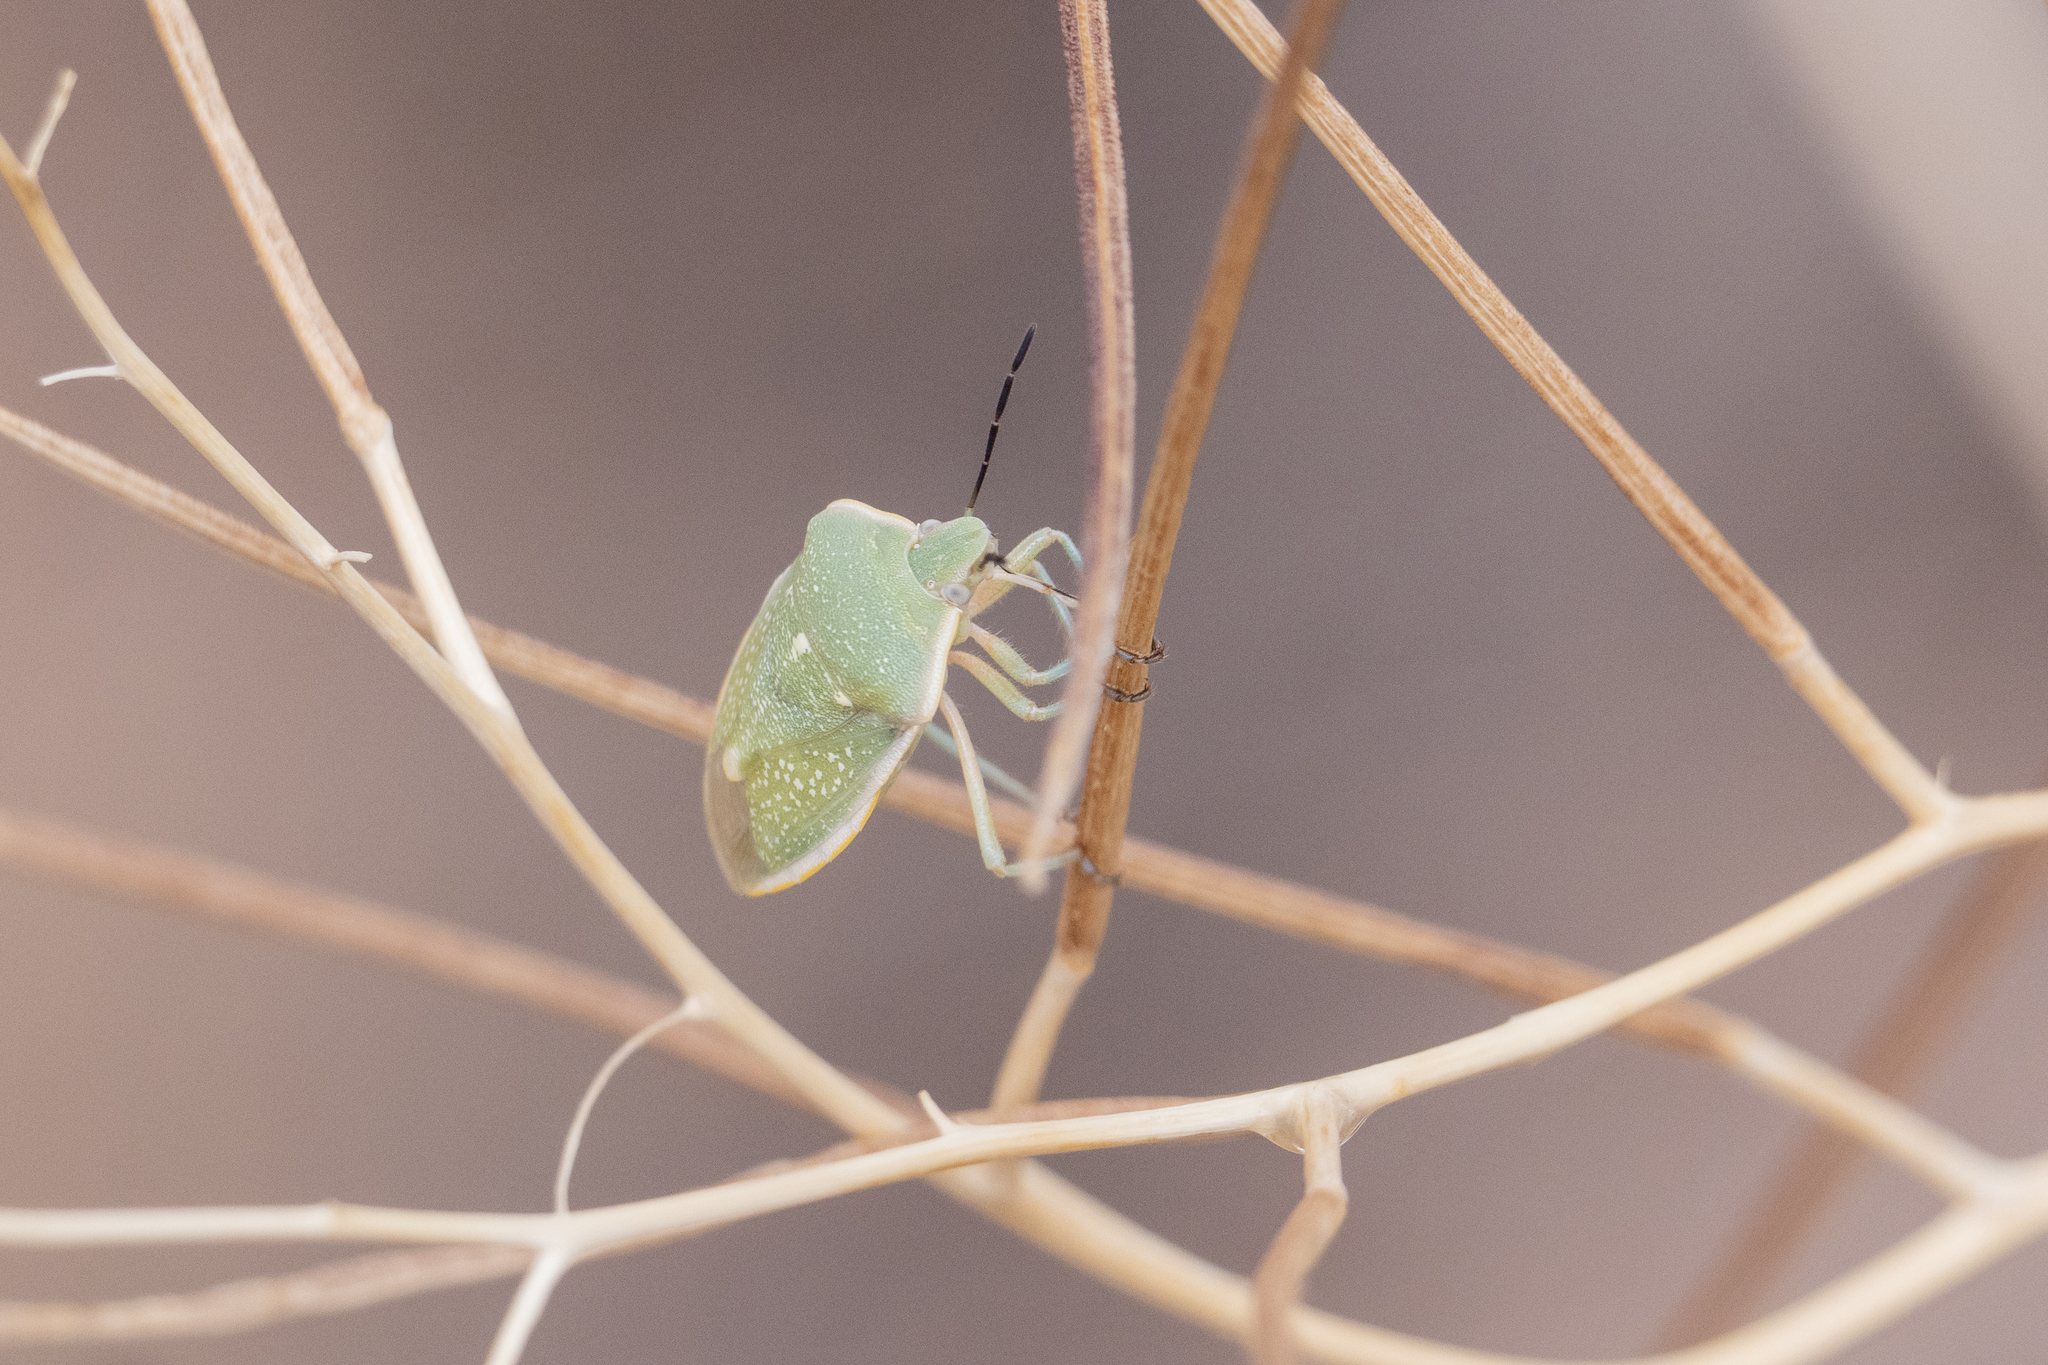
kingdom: Animalia
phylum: Arthropoda
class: Insecta
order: Hemiptera
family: Pentatomidae
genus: Chlorochroa
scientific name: Chlorochroa uhleri
